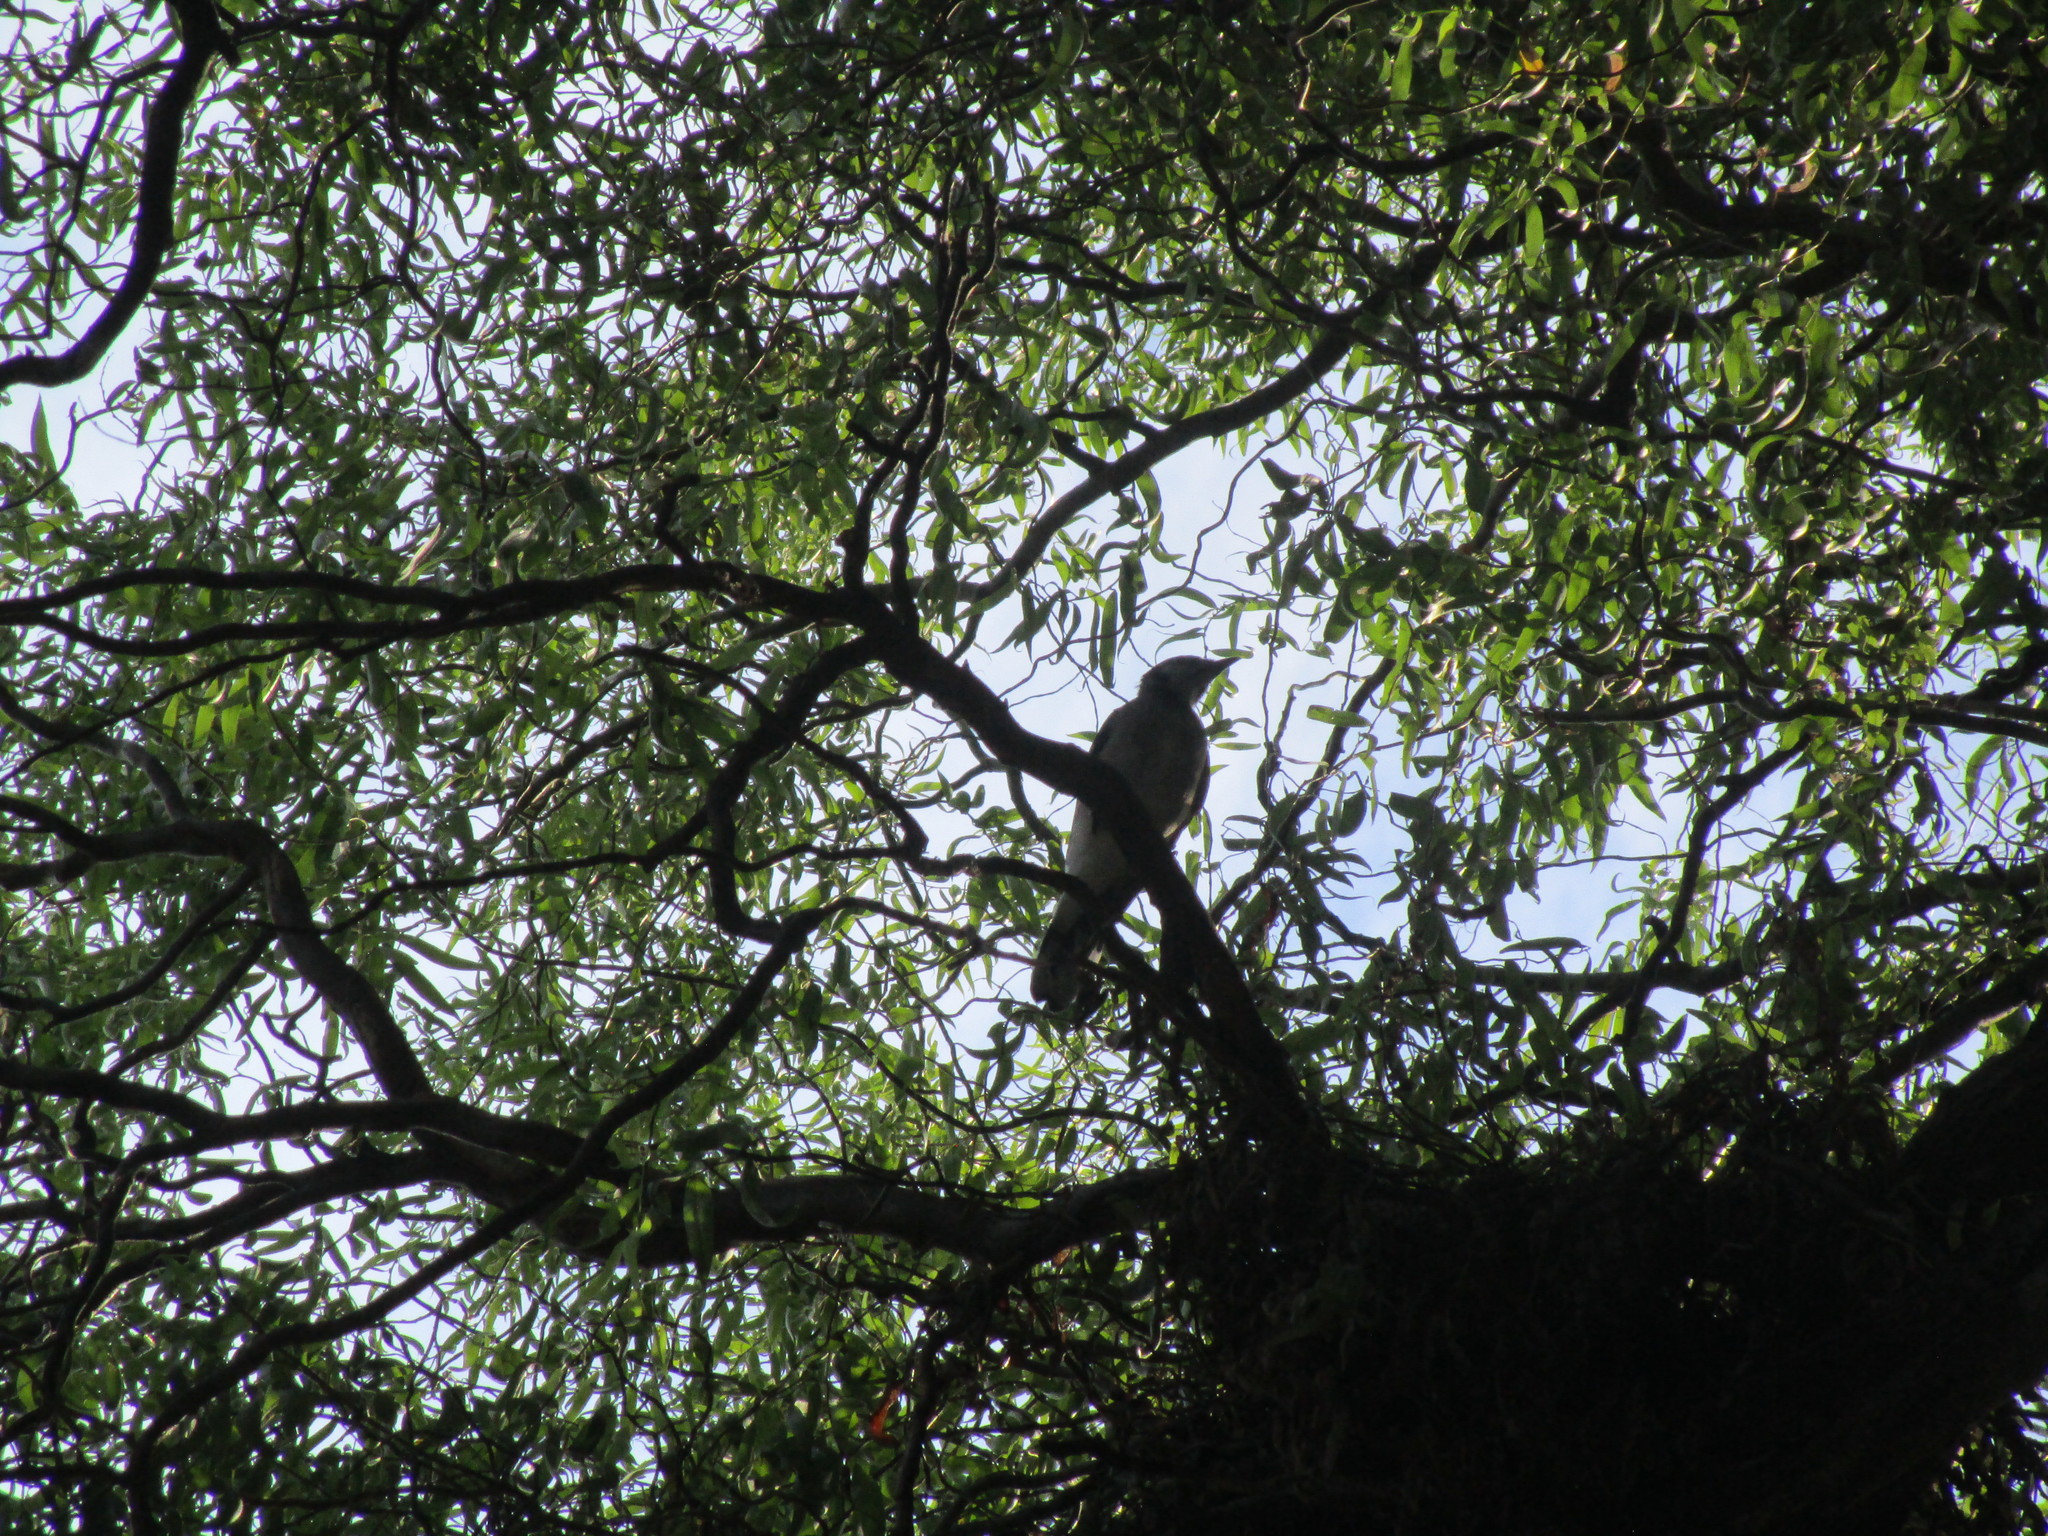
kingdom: Animalia
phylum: Chordata
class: Aves
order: Passeriformes
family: Corvidae
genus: Cyanocitta
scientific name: Cyanocitta cristata
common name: Blue jay
